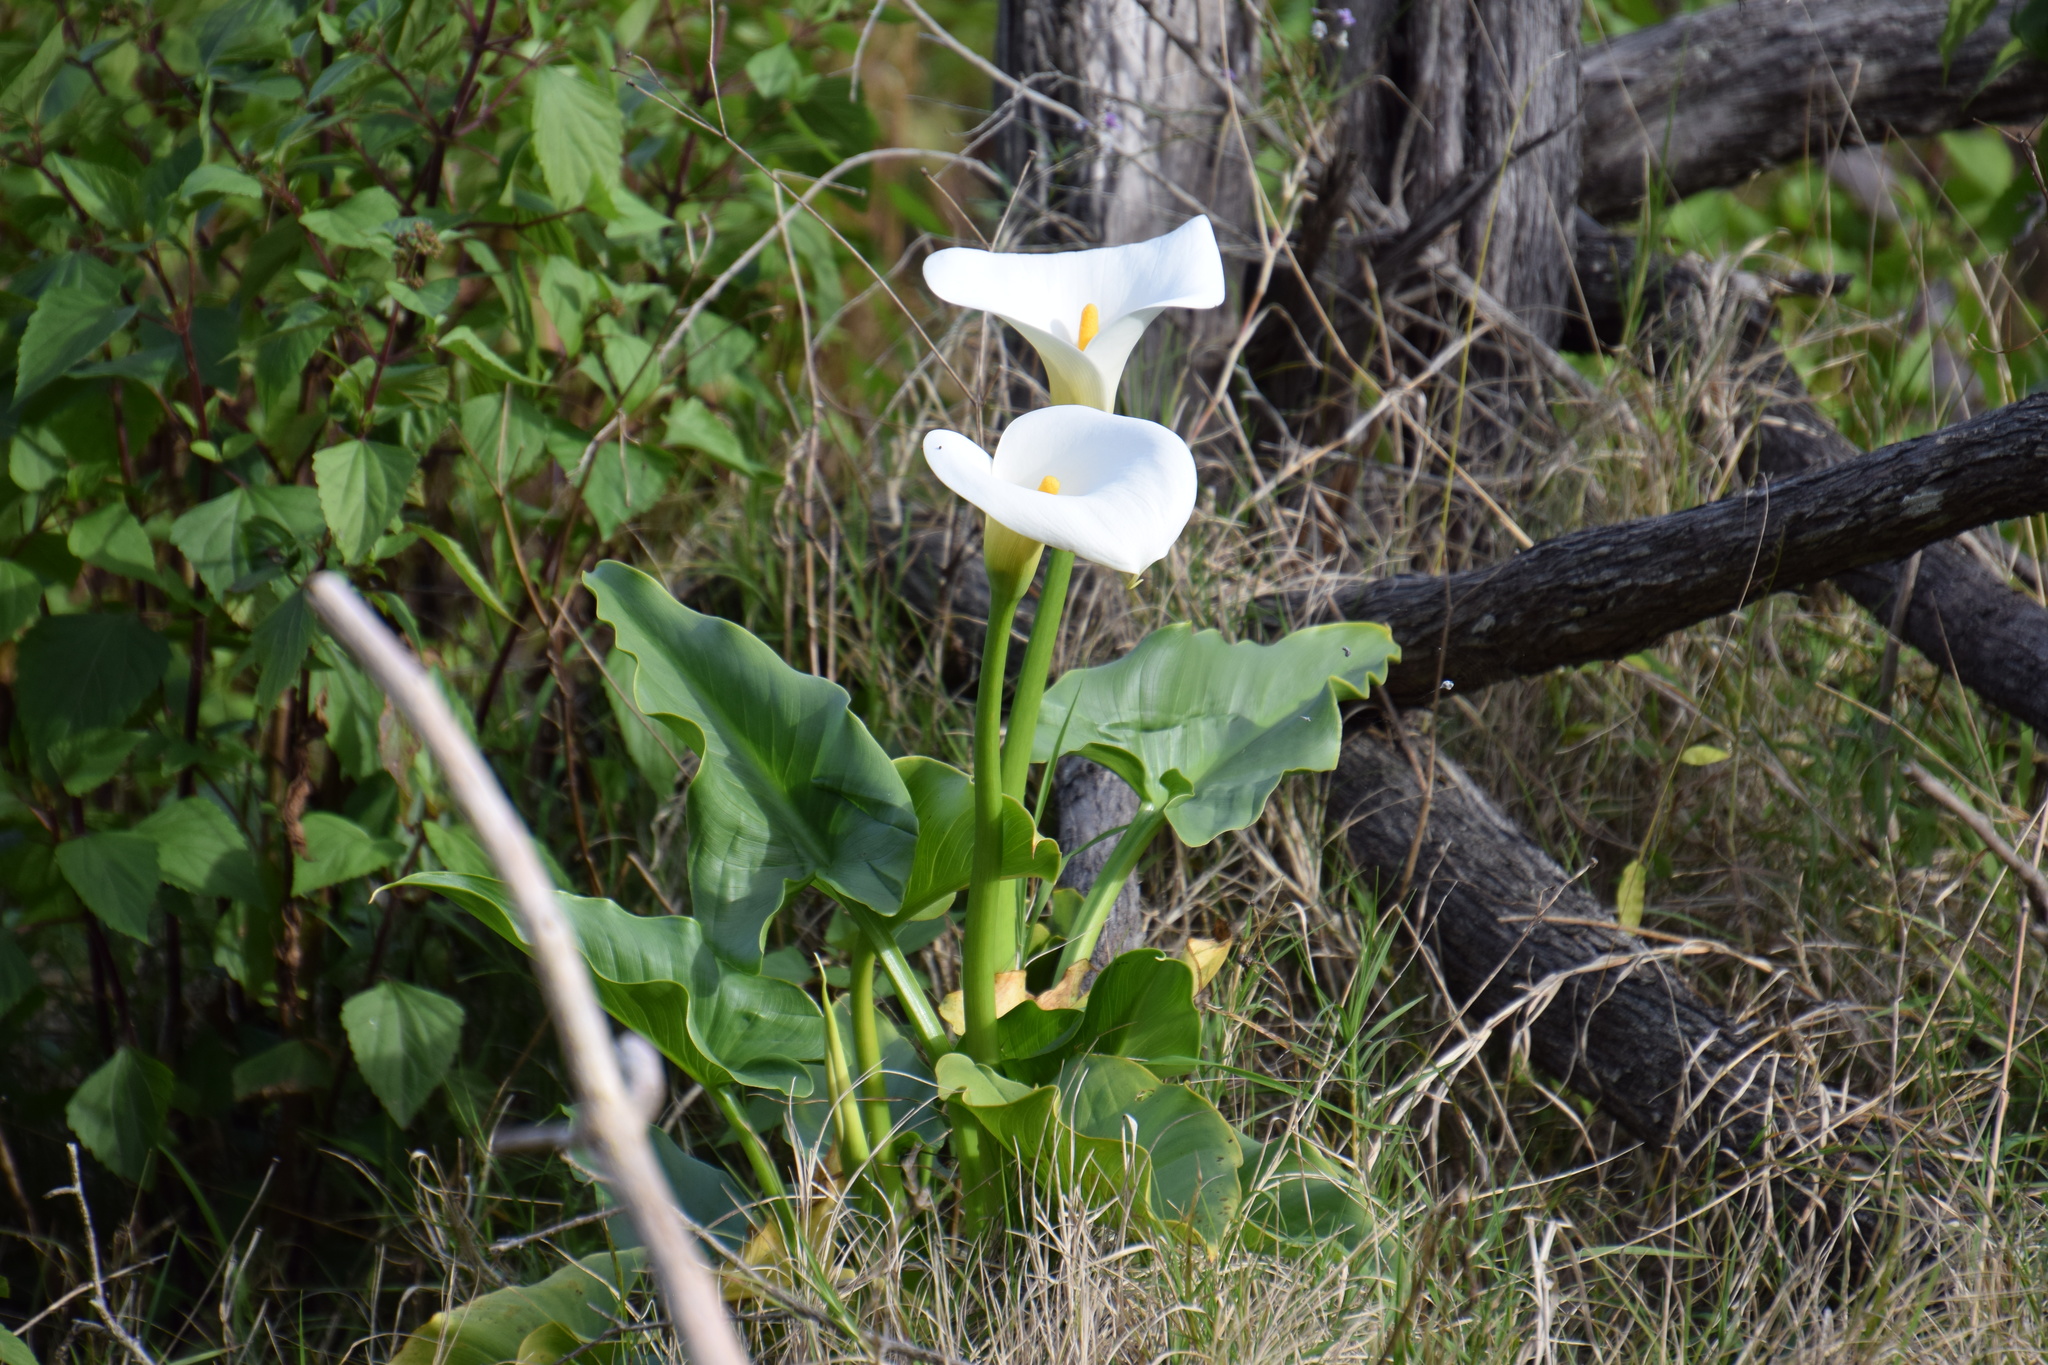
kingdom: Plantae
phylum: Tracheophyta
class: Liliopsida
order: Alismatales
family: Araceae
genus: Zantedeschia
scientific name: Zantedeschia aethiopica
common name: Altar-lily
